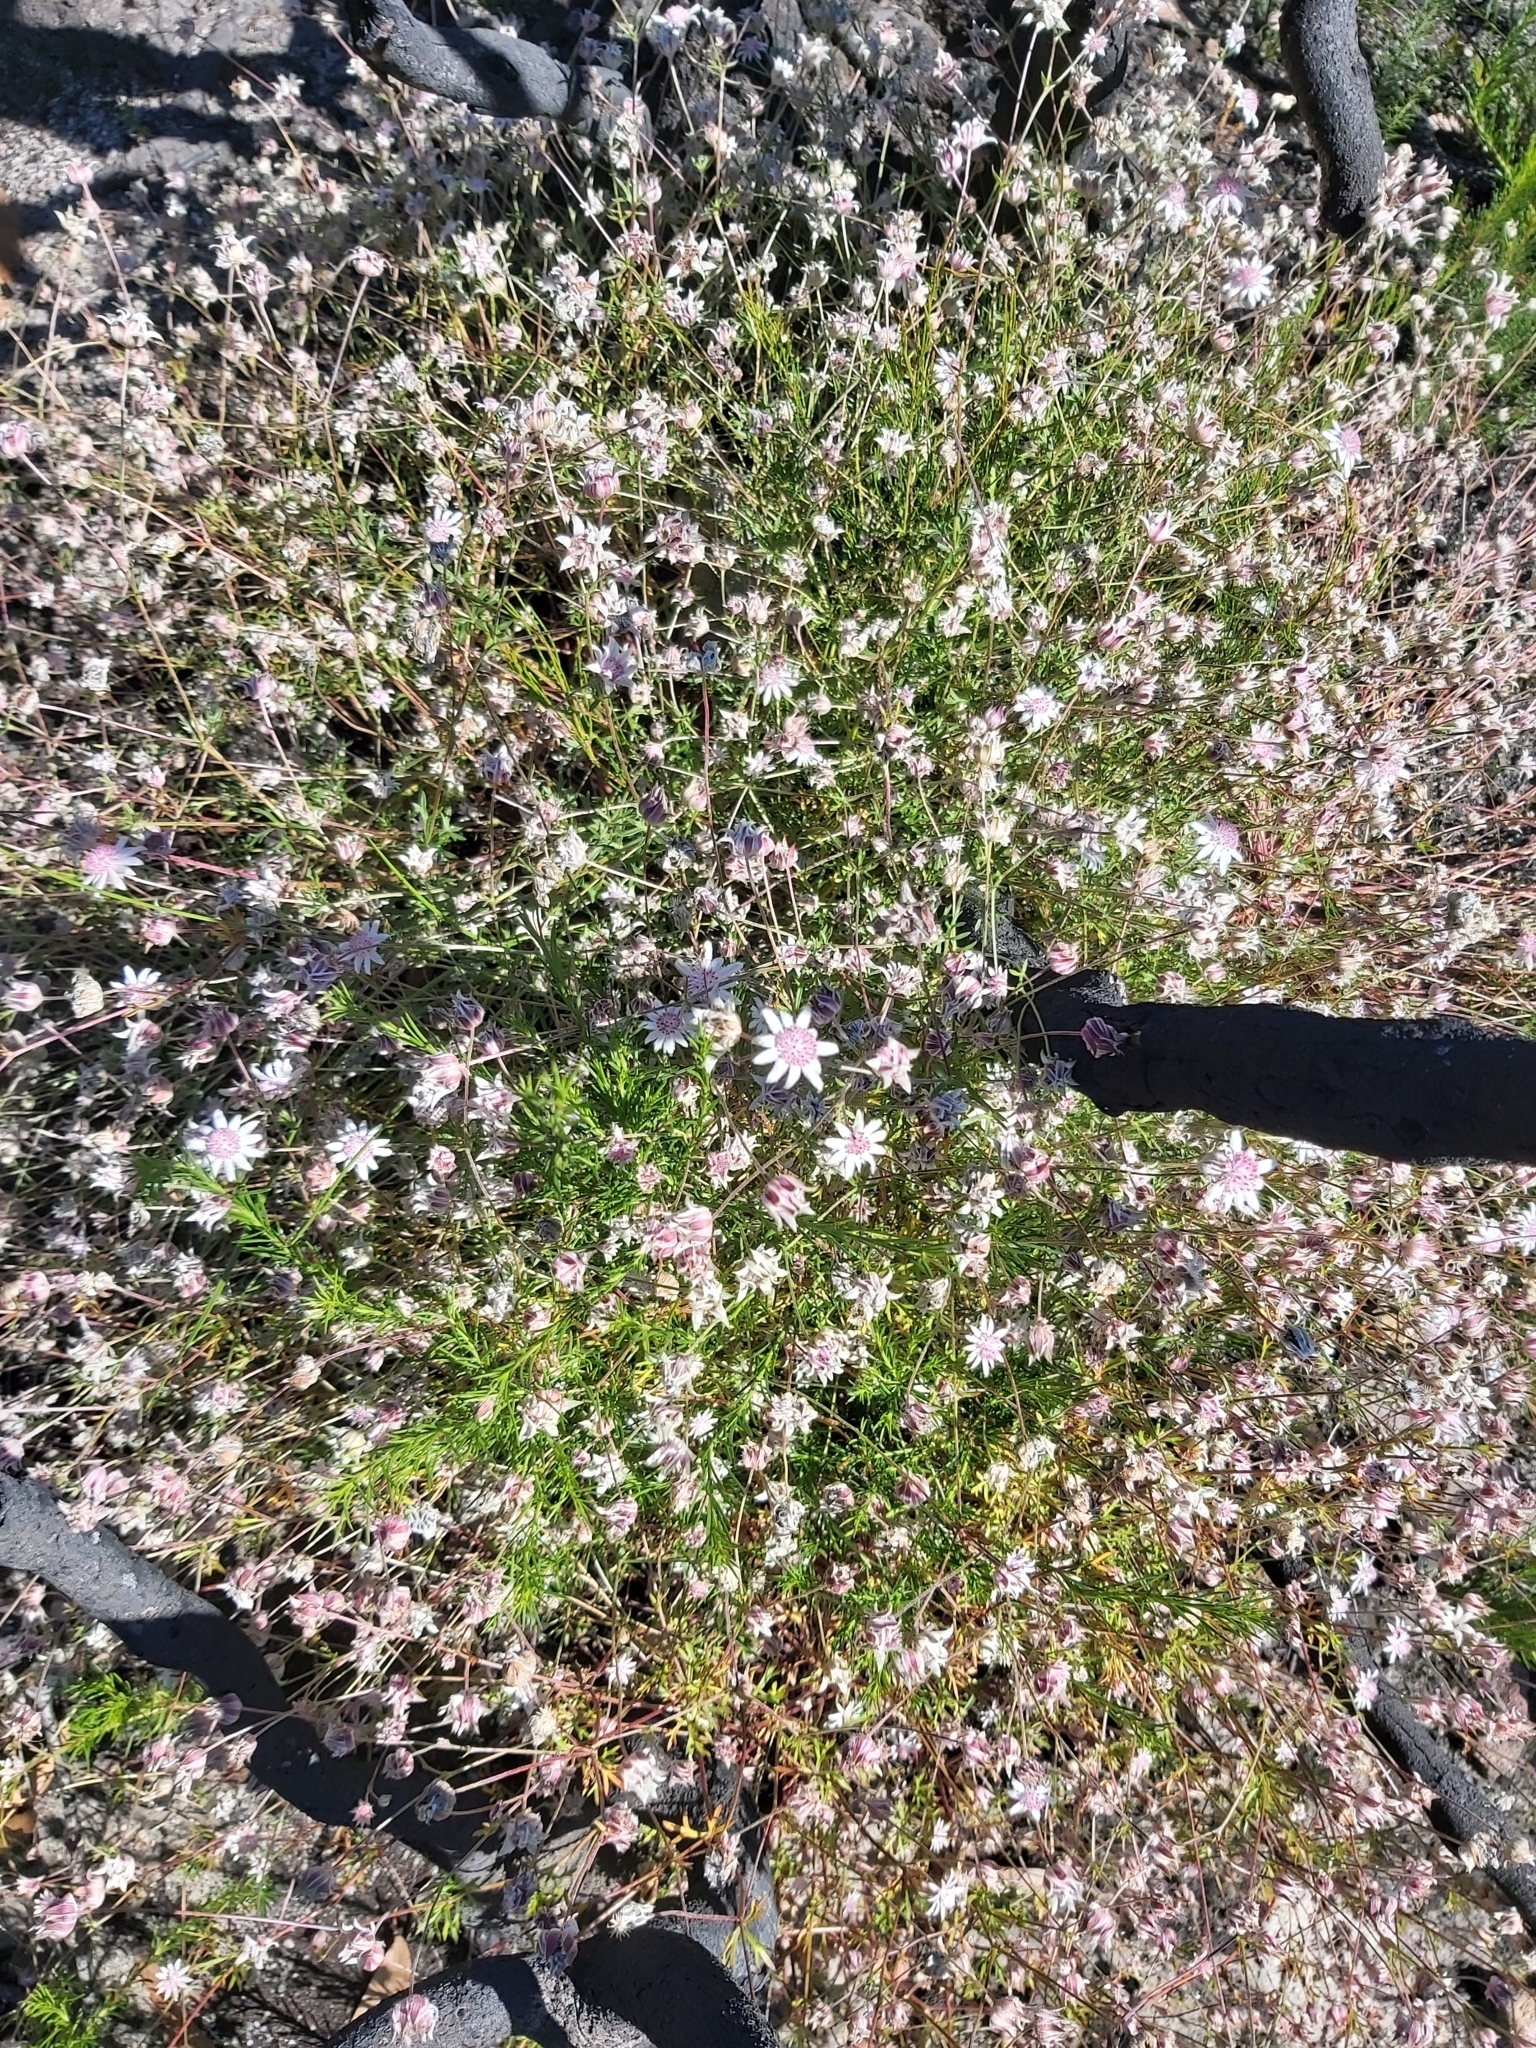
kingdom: Plantae
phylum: Tracheophyta
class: Magnoliopsida
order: Apiales
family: Apiaceae
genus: Actinotus
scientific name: Actinotus forsythii
